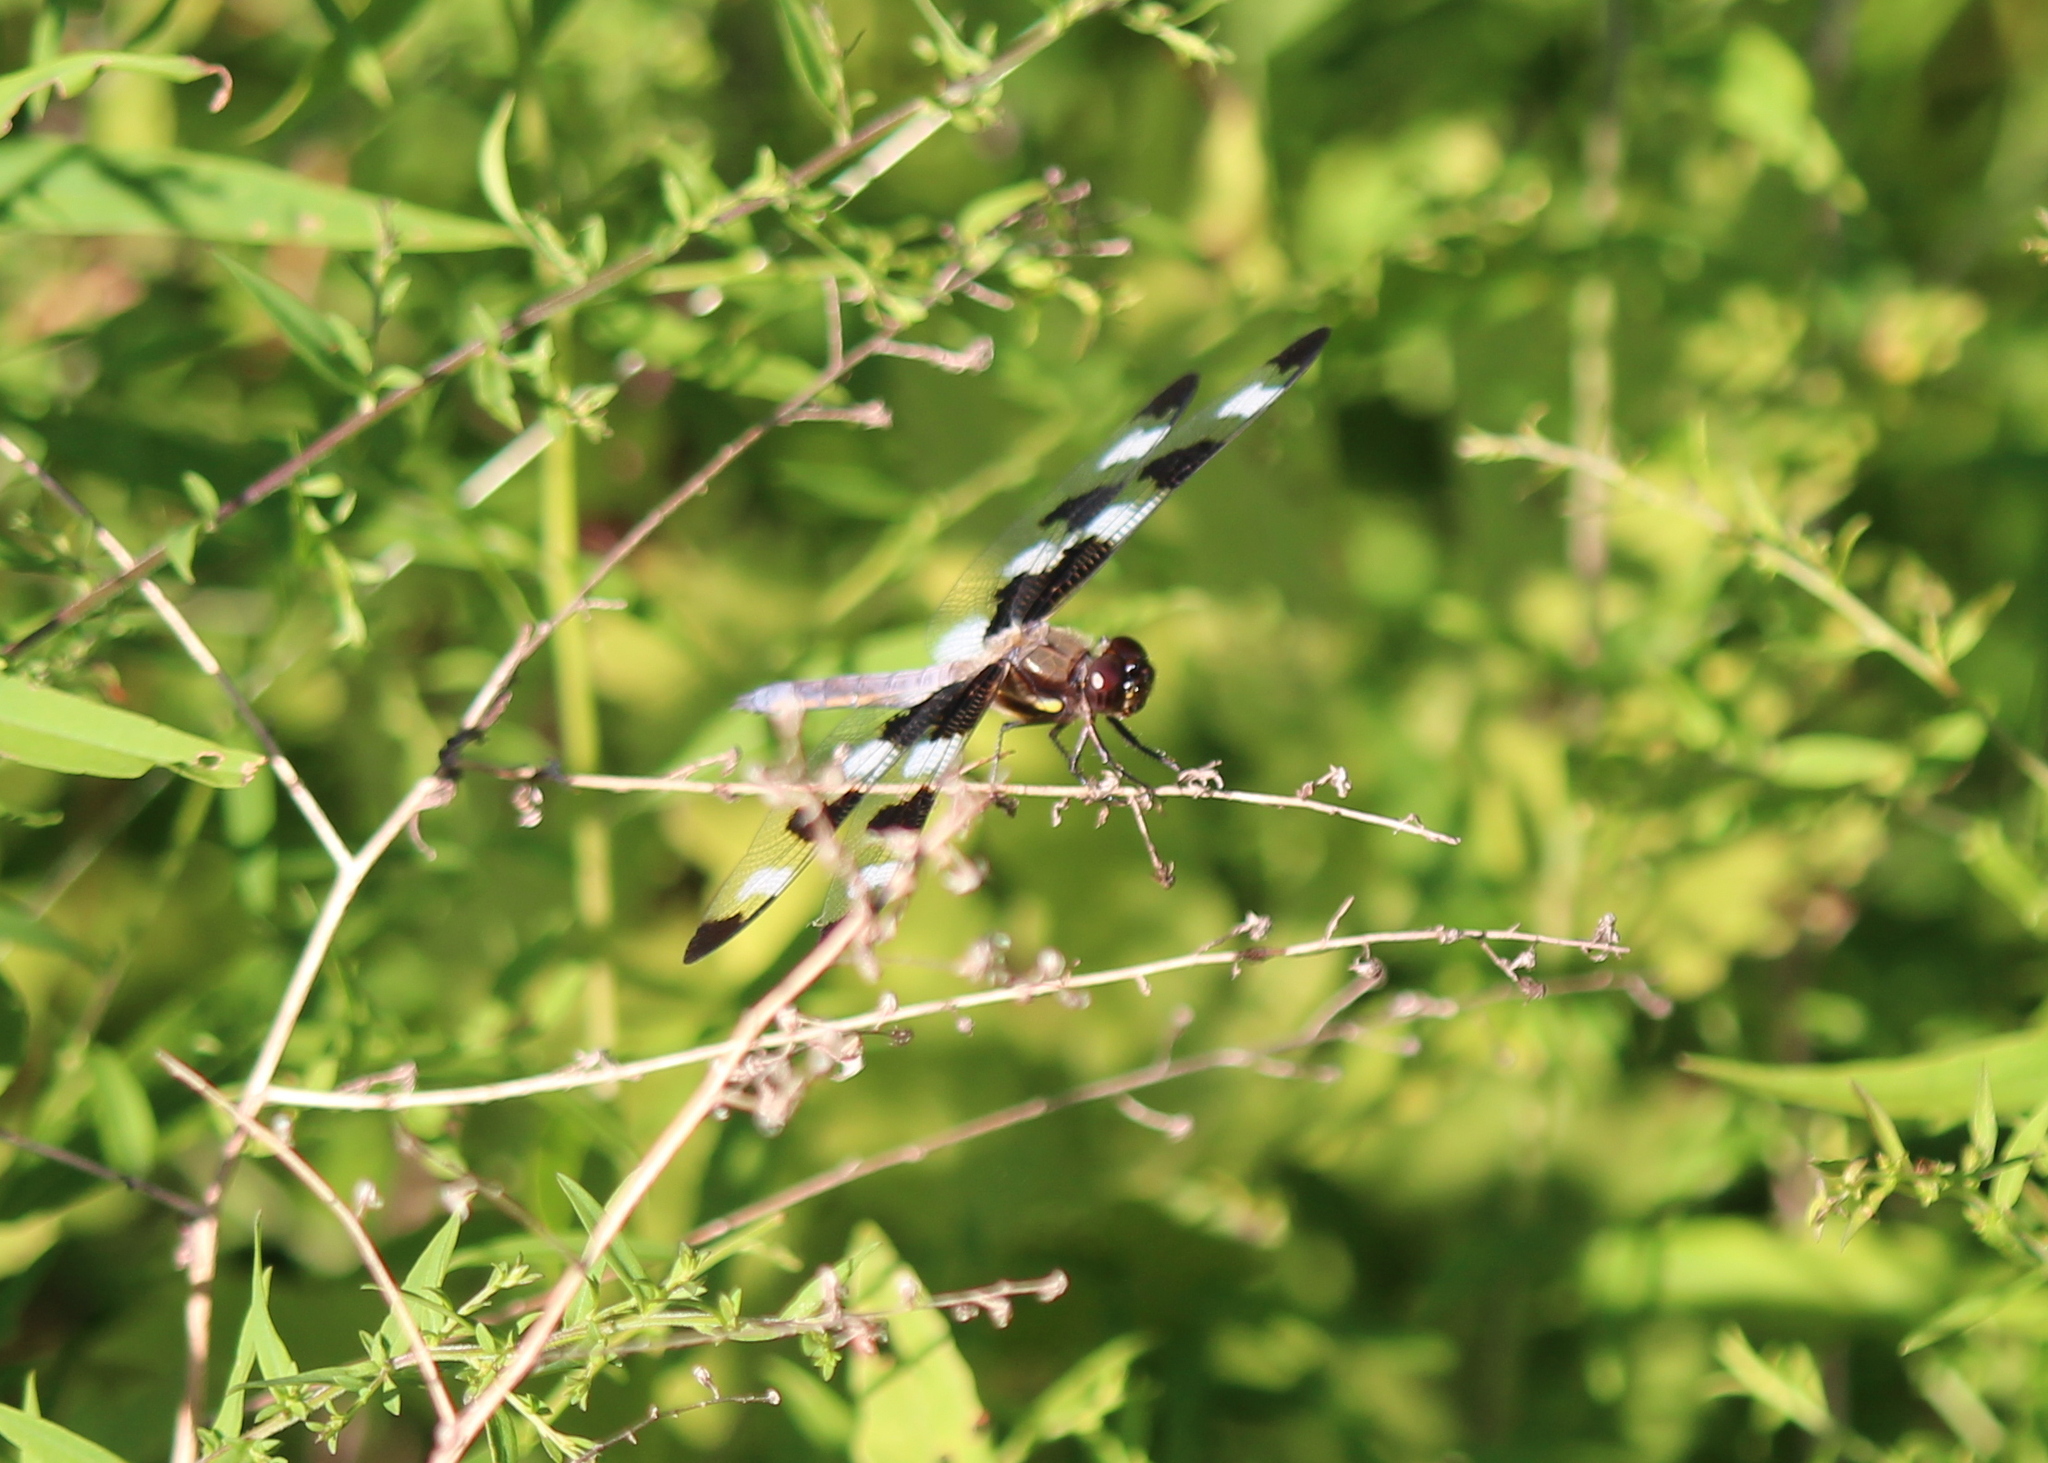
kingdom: Animalia
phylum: Arthropoda
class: Insecta
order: Odonata
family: Libellulidae
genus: Libellula
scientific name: Libellula pulchella
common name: Twelve-spotted skimmer
